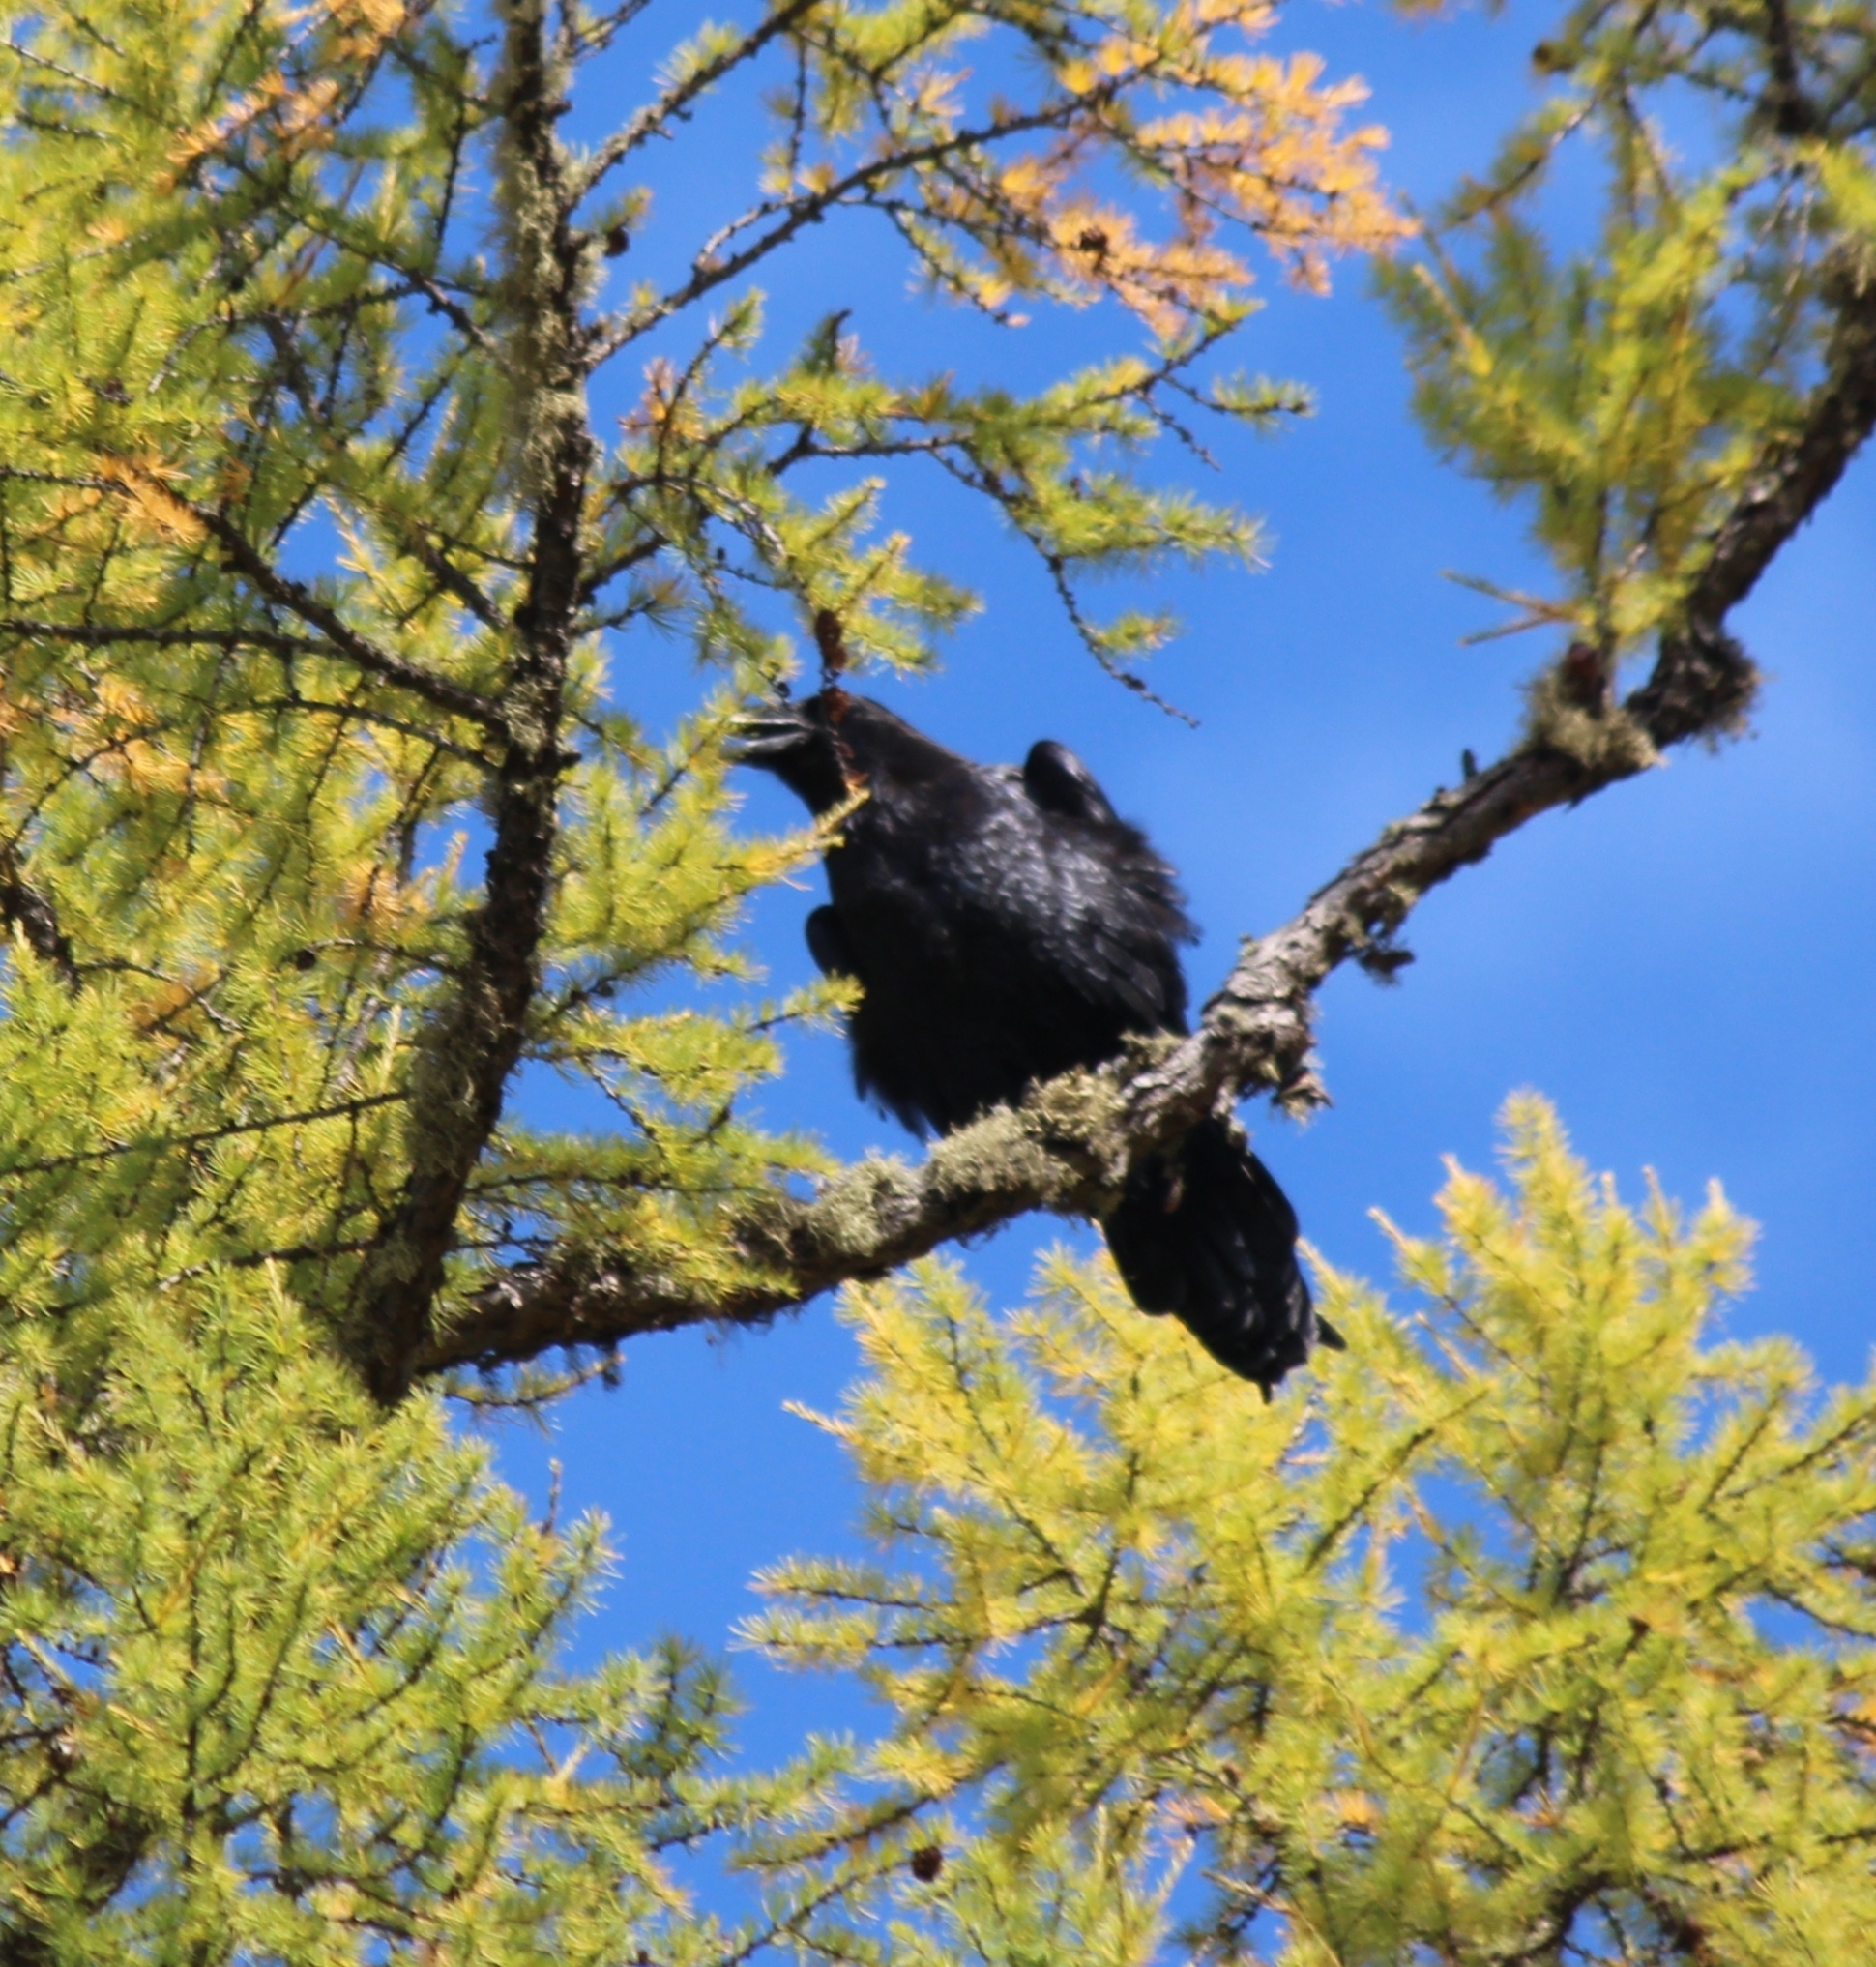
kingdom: Animalia
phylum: Chordata
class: Aves
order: Passeriformes
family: Corvidae
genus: Corvus
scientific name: Corvus corax
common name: Common raven
